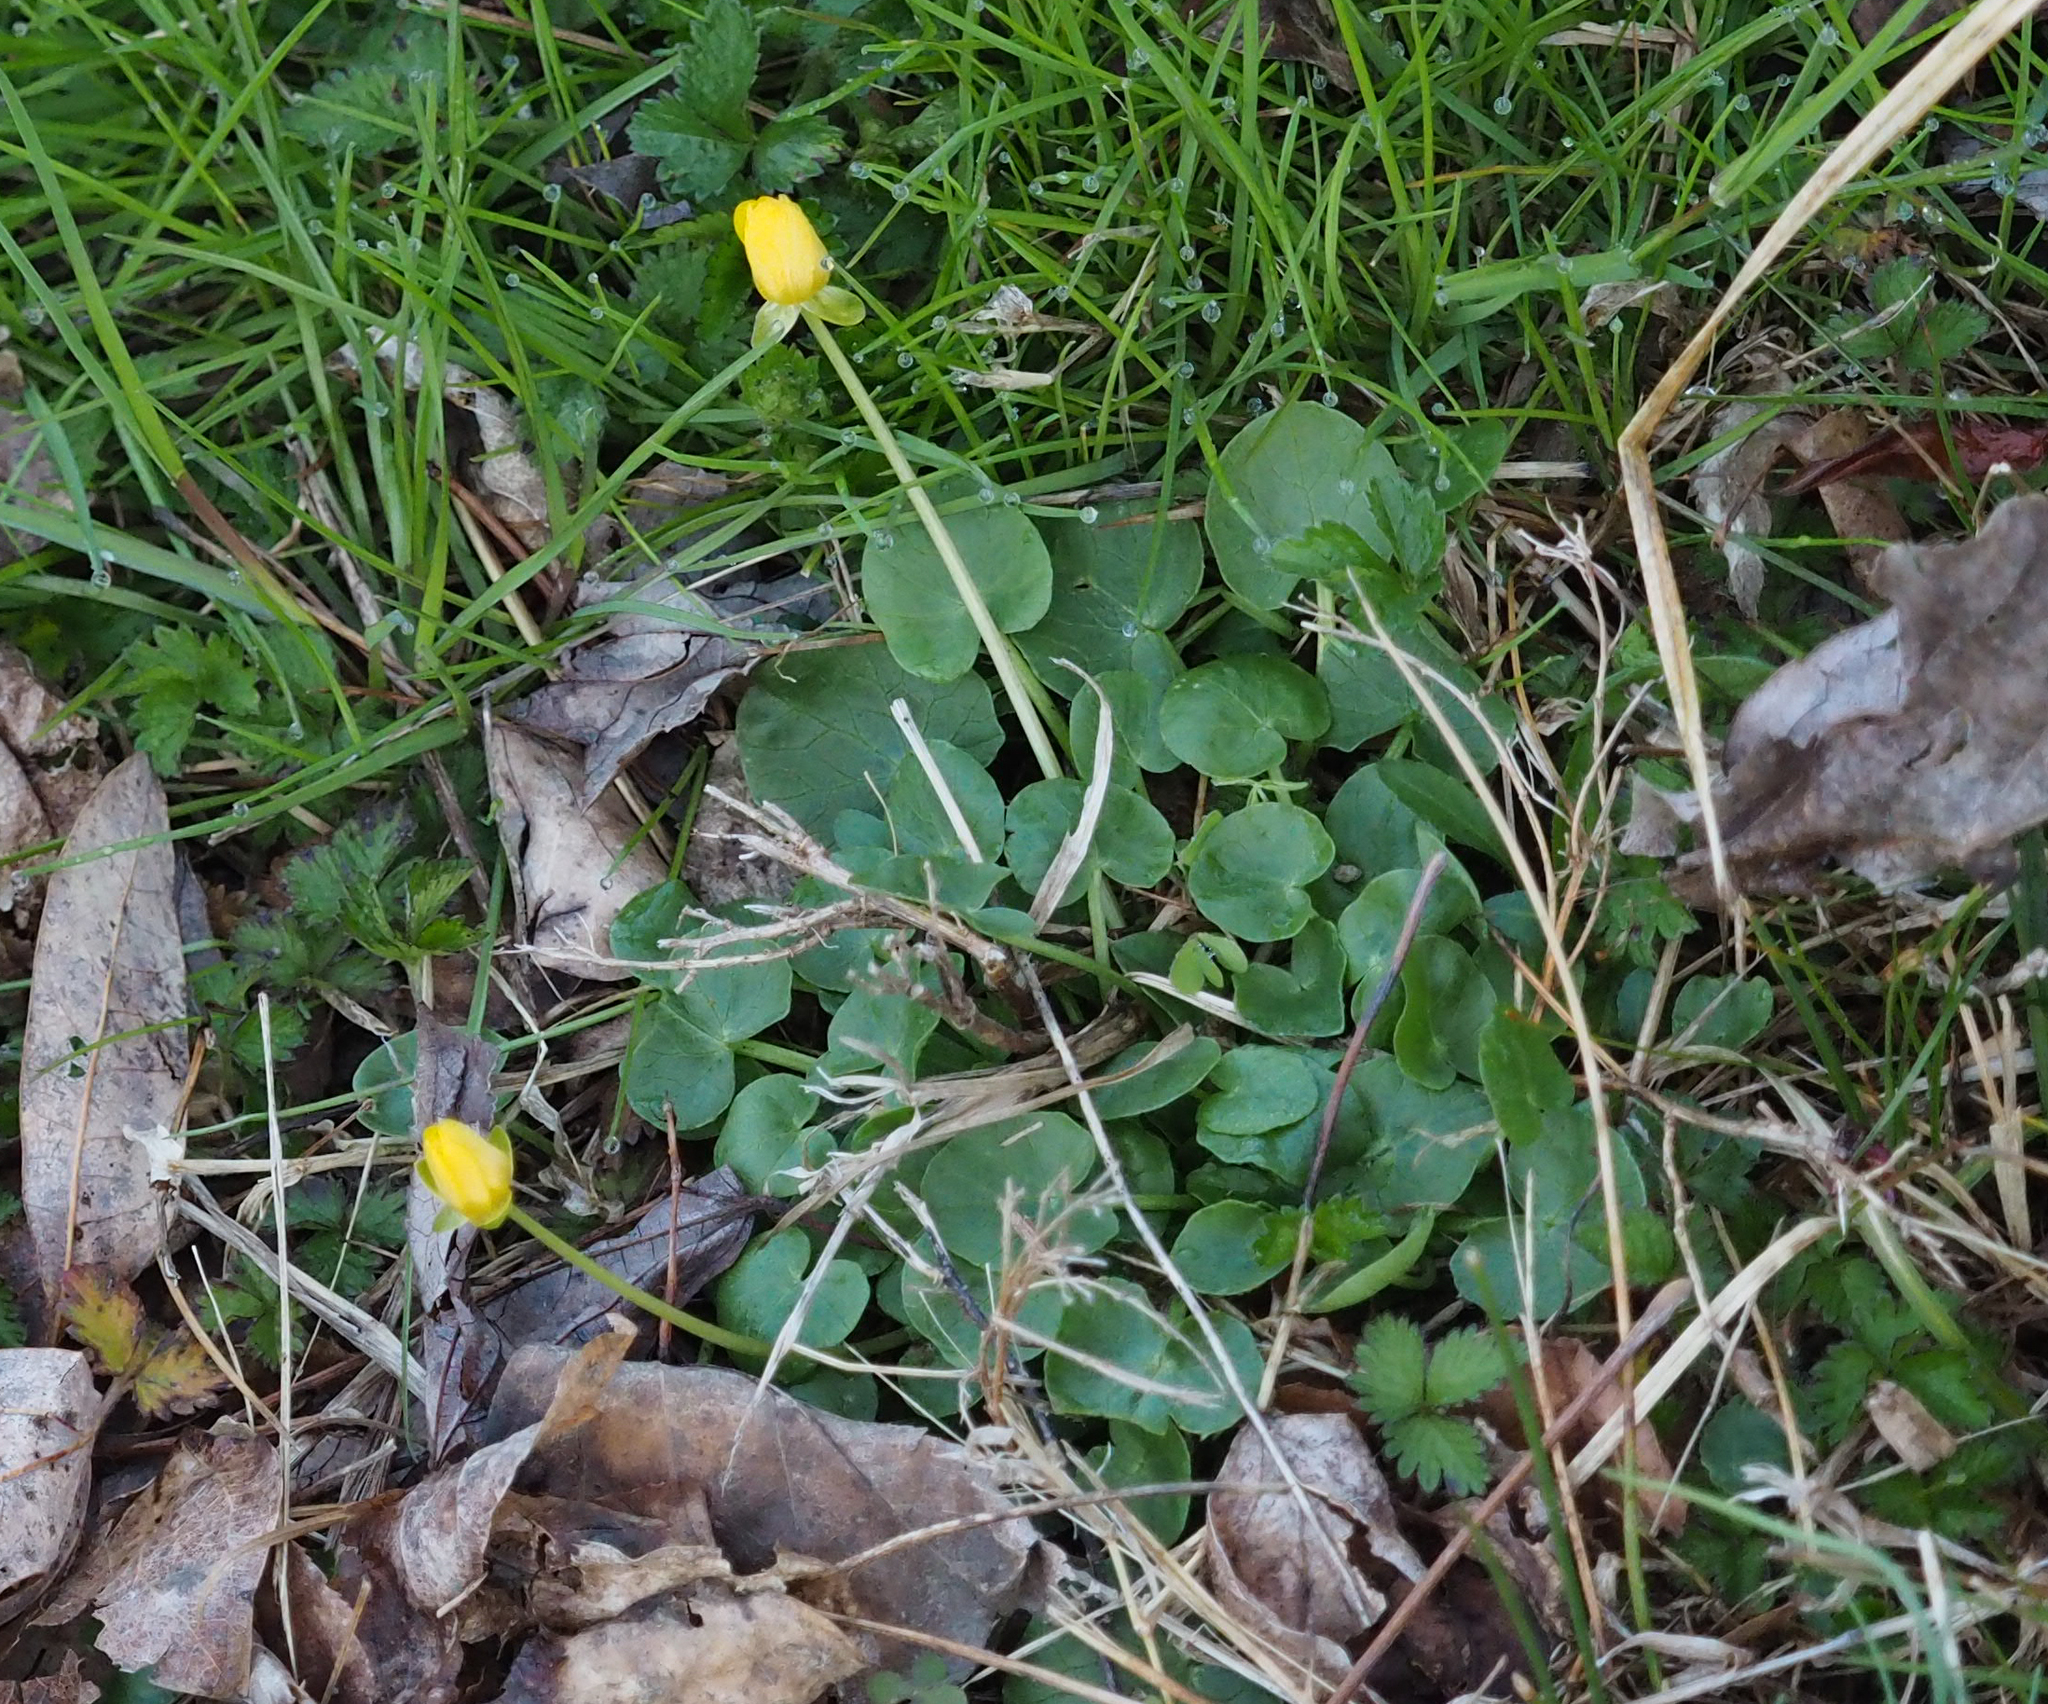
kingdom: Plantae
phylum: Tracheophyta
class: Magnoliopsida
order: Ranunculales
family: Ranunculaceae
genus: Ficaria
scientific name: Ficaria verna
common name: Lesser celandine
